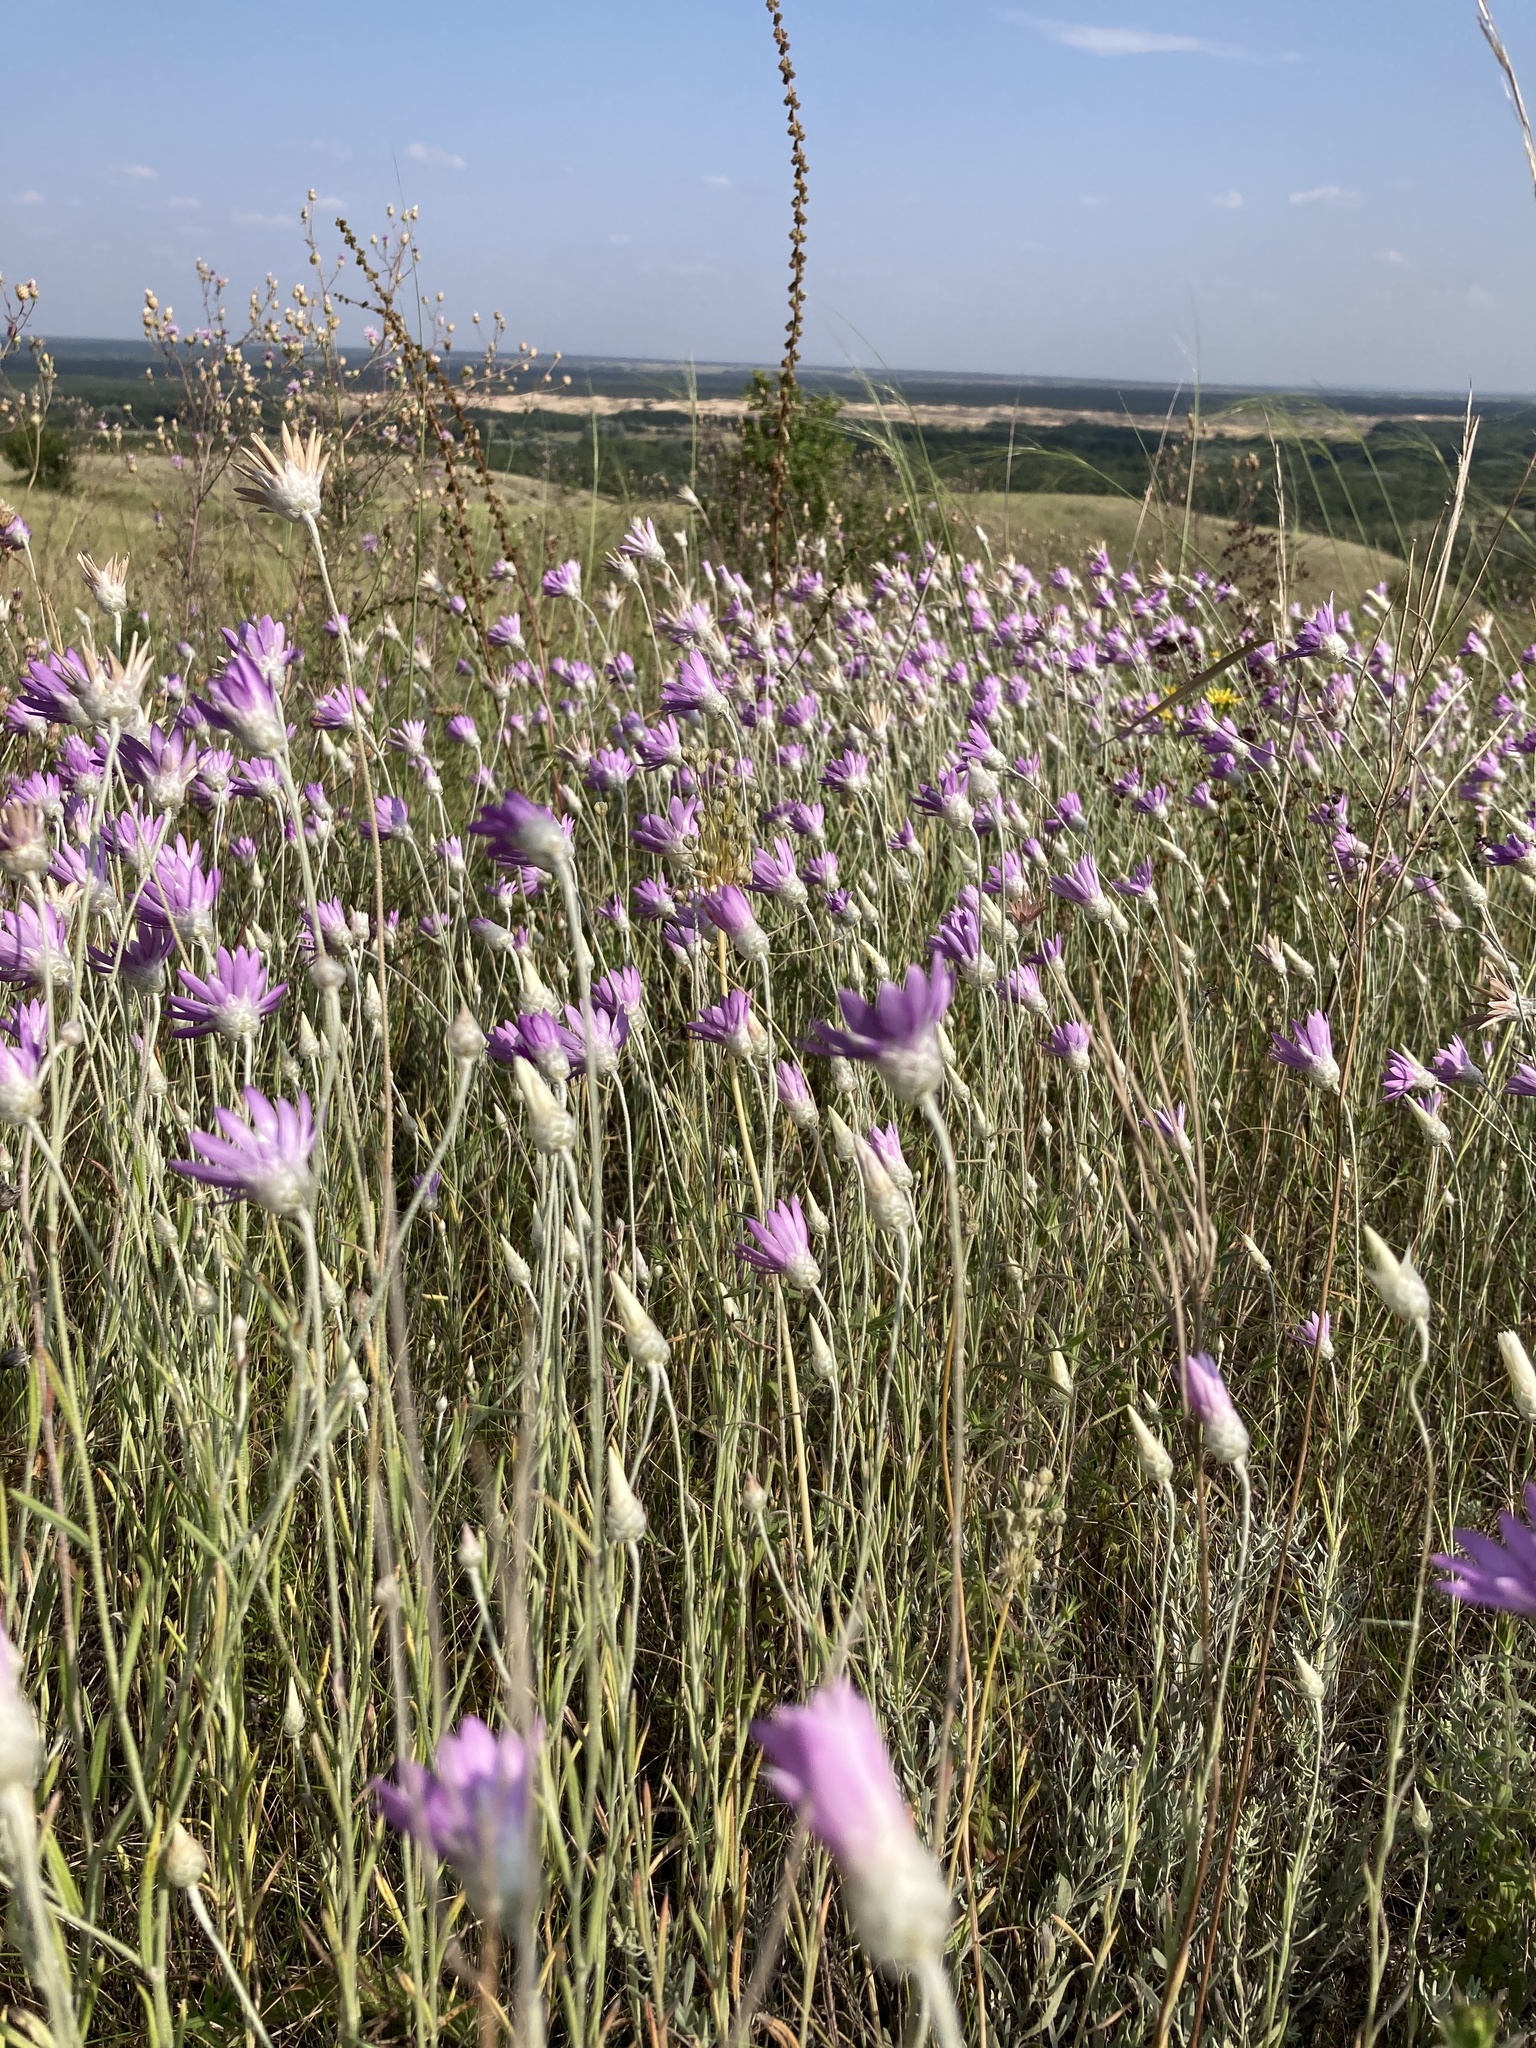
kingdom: Plantae
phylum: Tracheophyta
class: Magnoliopsida
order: Asterales
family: Asteraceae
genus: Xeranthemum
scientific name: Xeranthemum annuum
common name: Immortelle
